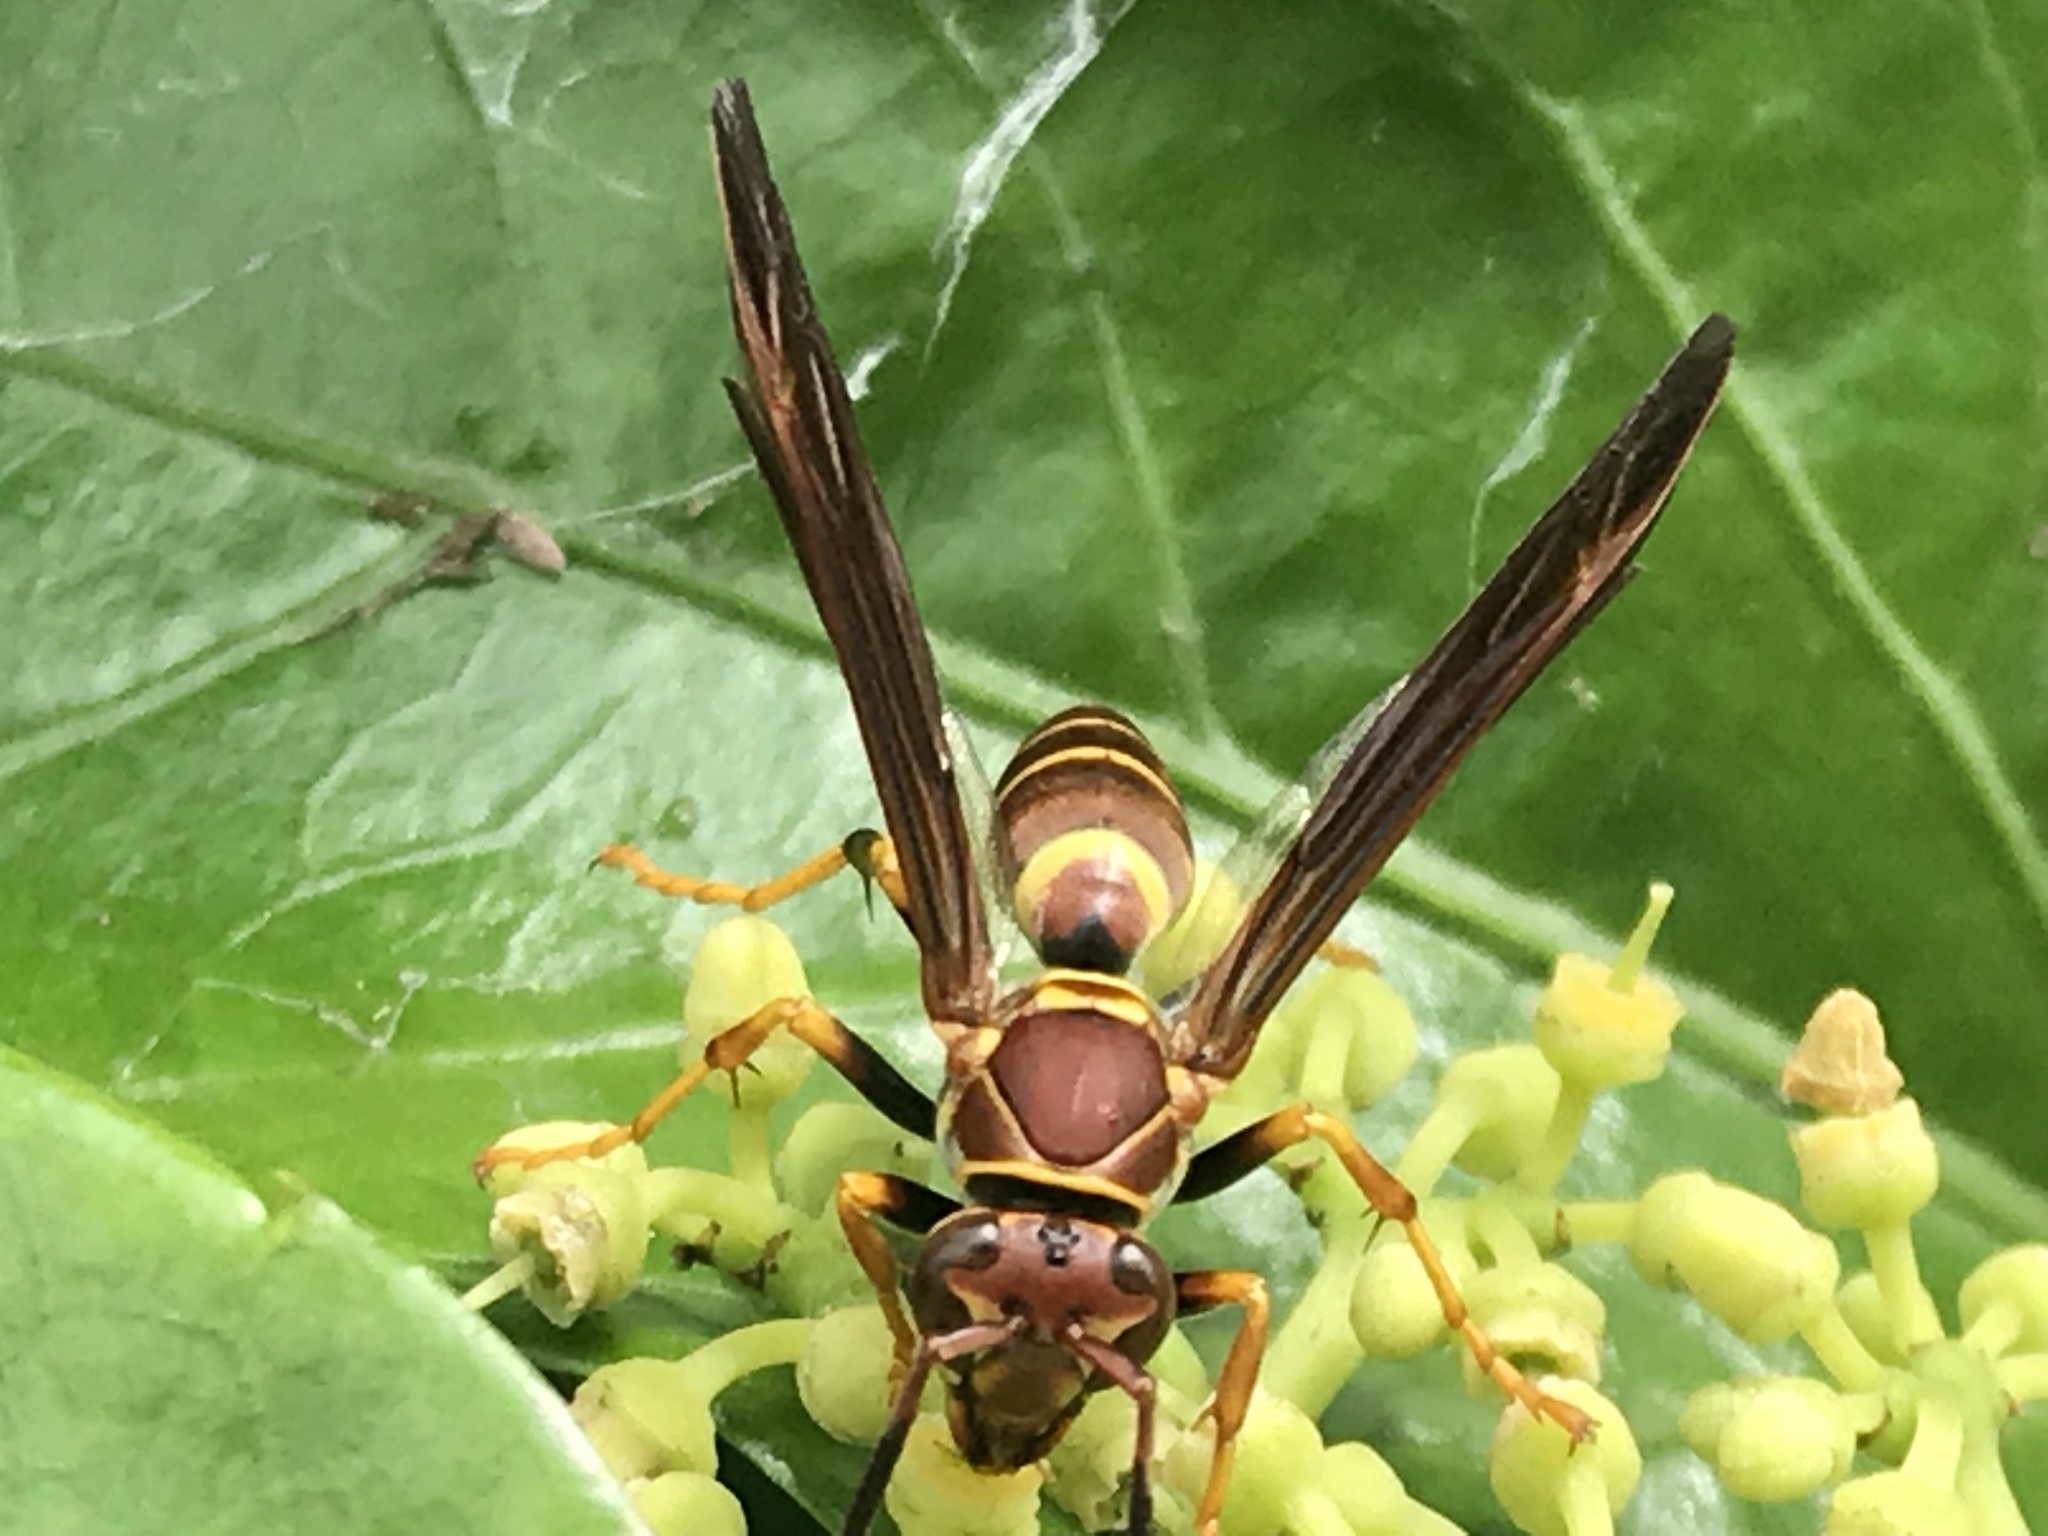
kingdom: Animalia
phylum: Arthropoda
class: Insecta
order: Hymenoptera
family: Eumenidae
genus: Polistes
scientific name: Polistes instabilis
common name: Unstable paper wasp
